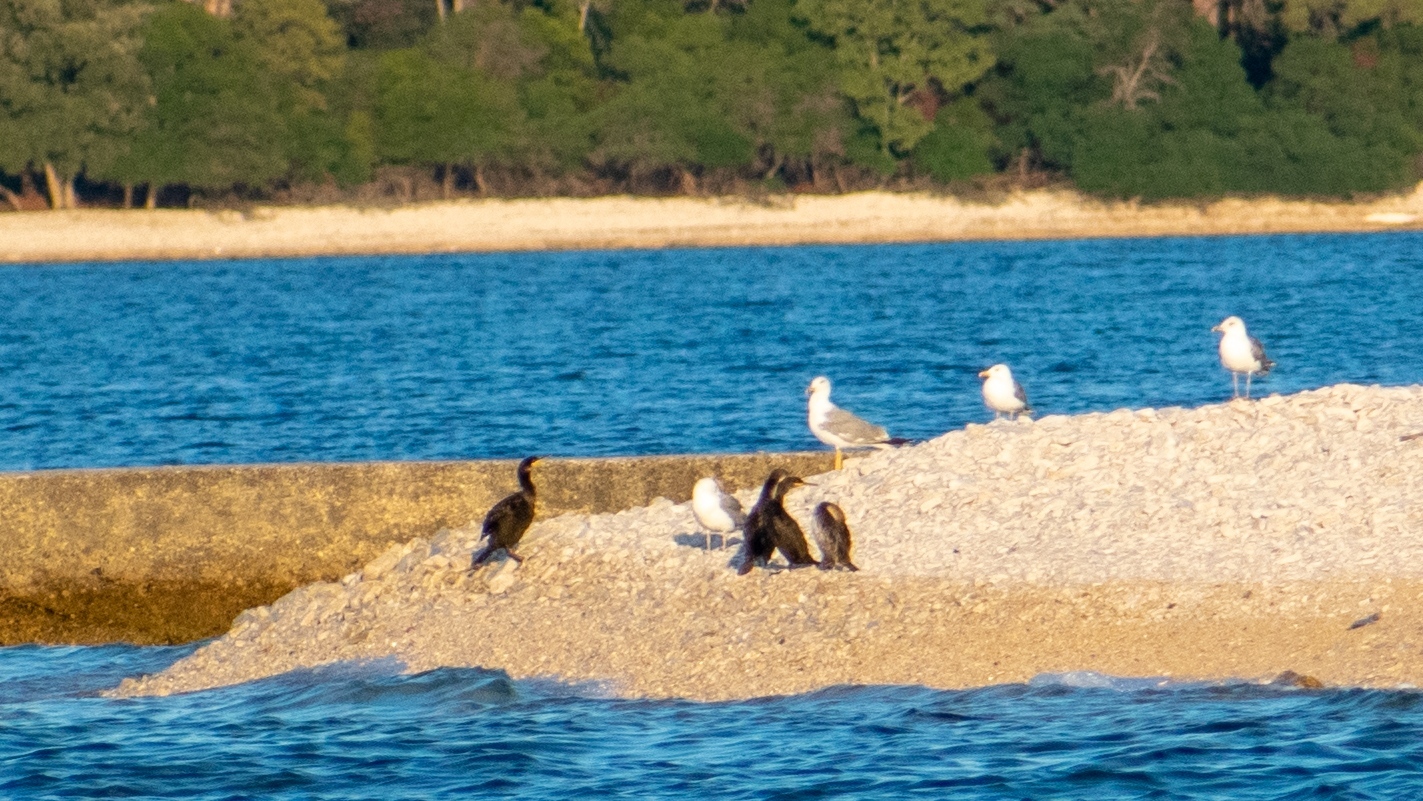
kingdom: Animalia
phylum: Chordata
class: Aves
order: Charadriiformes
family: Laridae
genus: Larus
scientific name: Larus michahellis
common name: Yellow-legged gull
